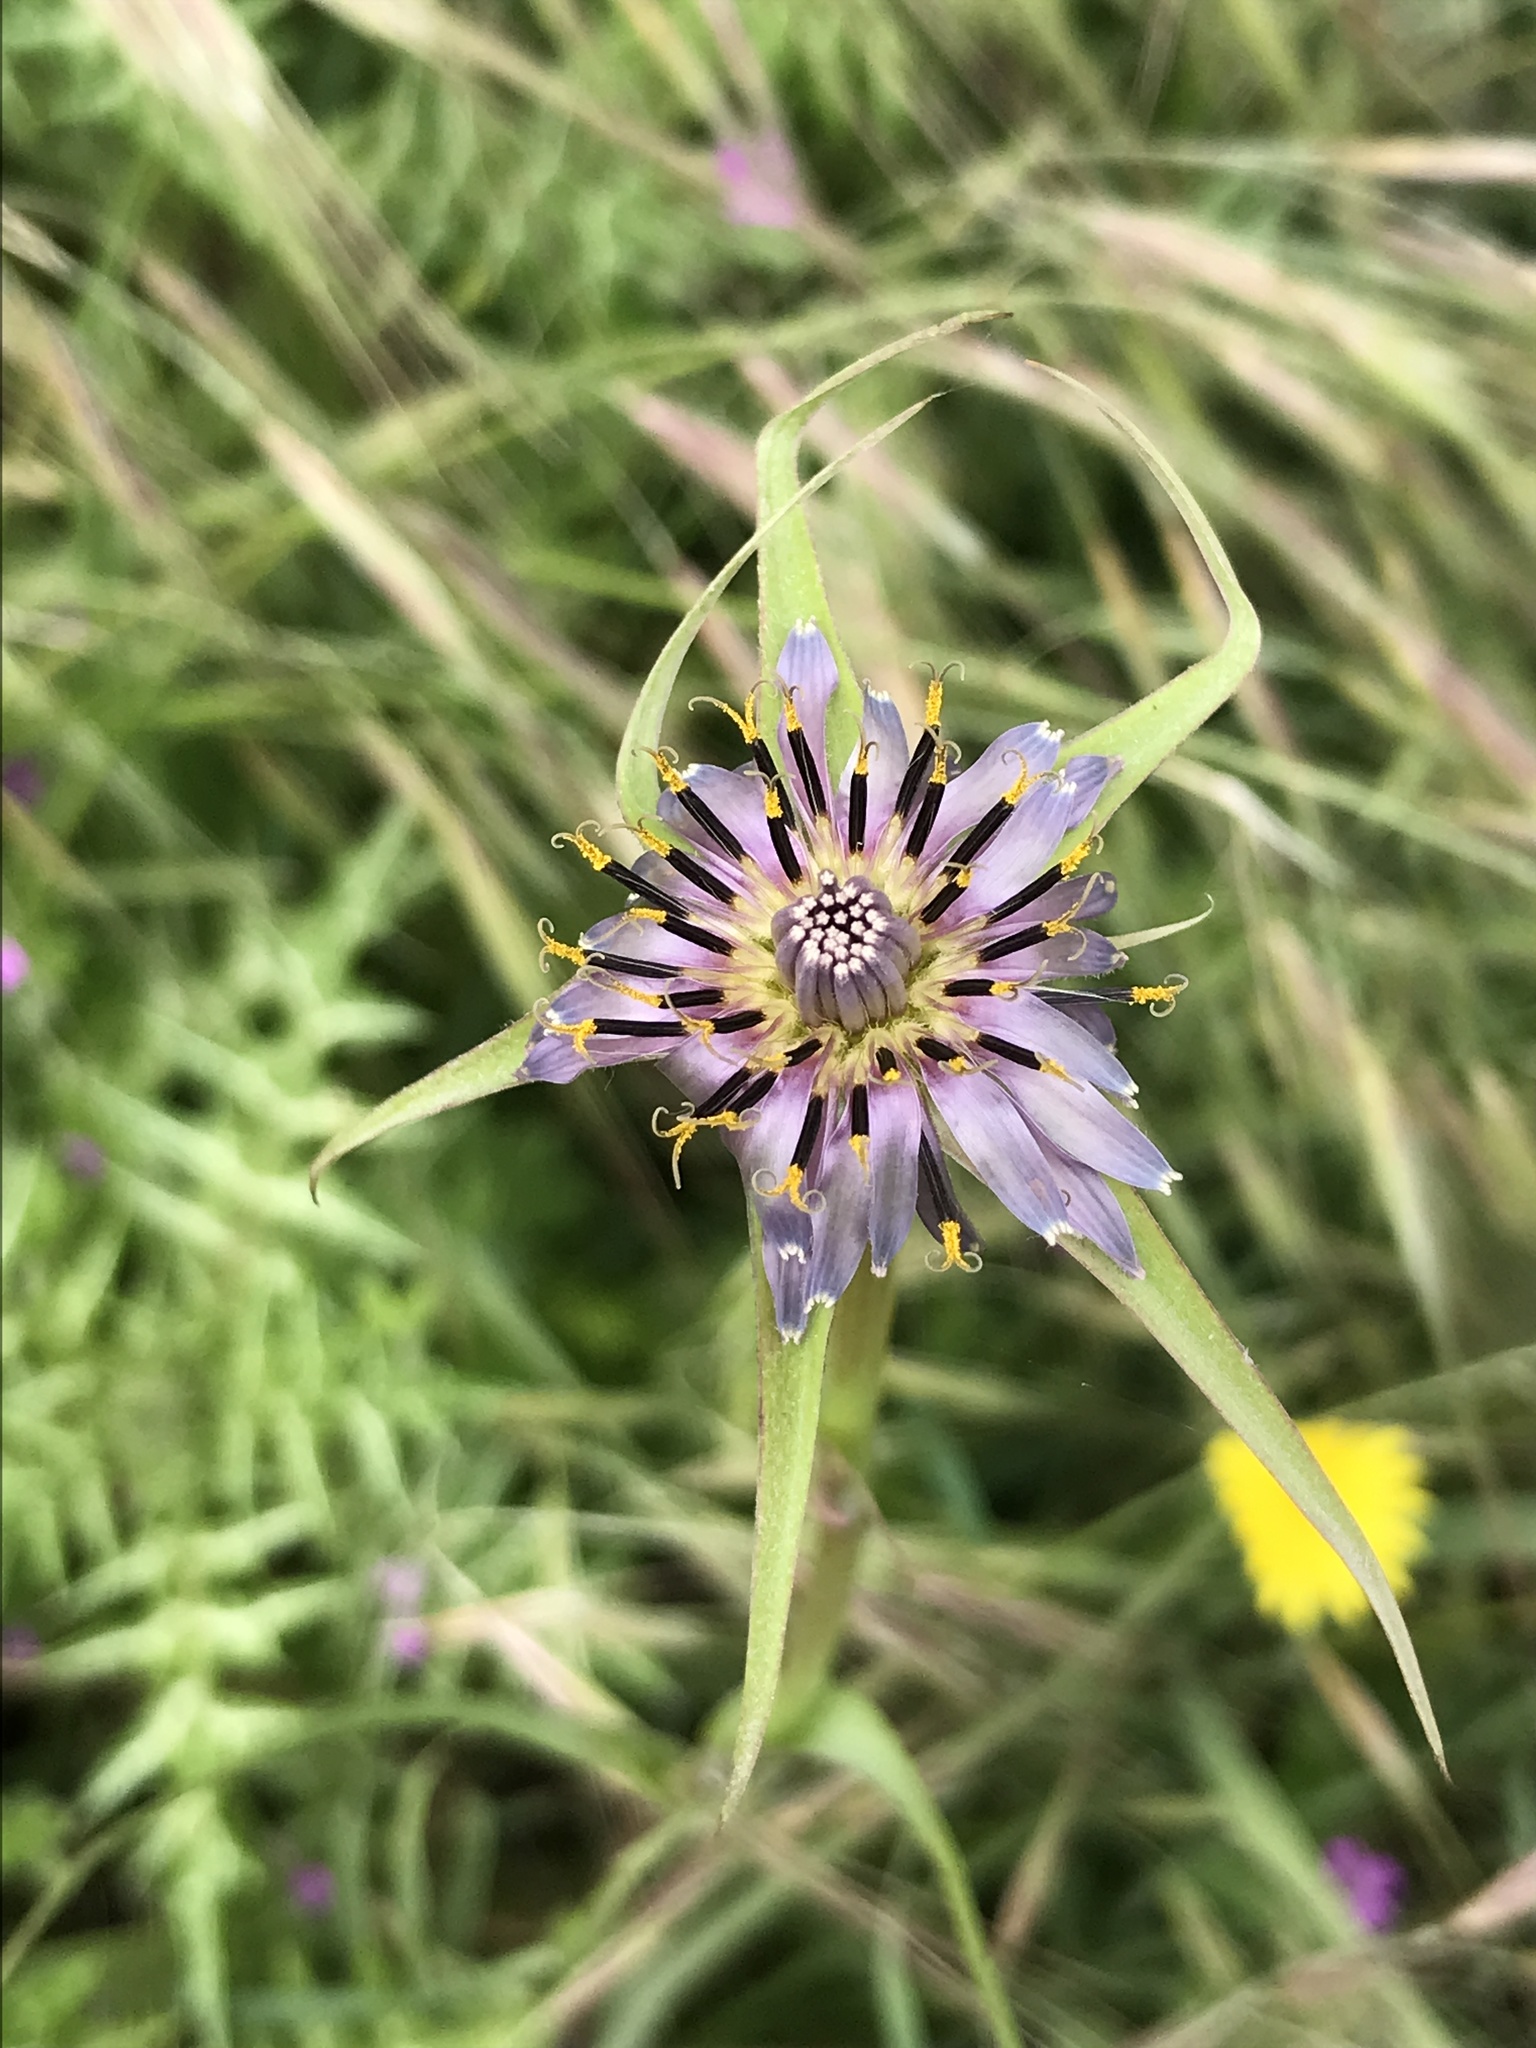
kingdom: Plantae
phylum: Tracheophyta
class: Magnoliopsida
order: Asterales
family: Asteraceae
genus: Tragopogon
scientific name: Tragopogon porrifolius
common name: Salsify
